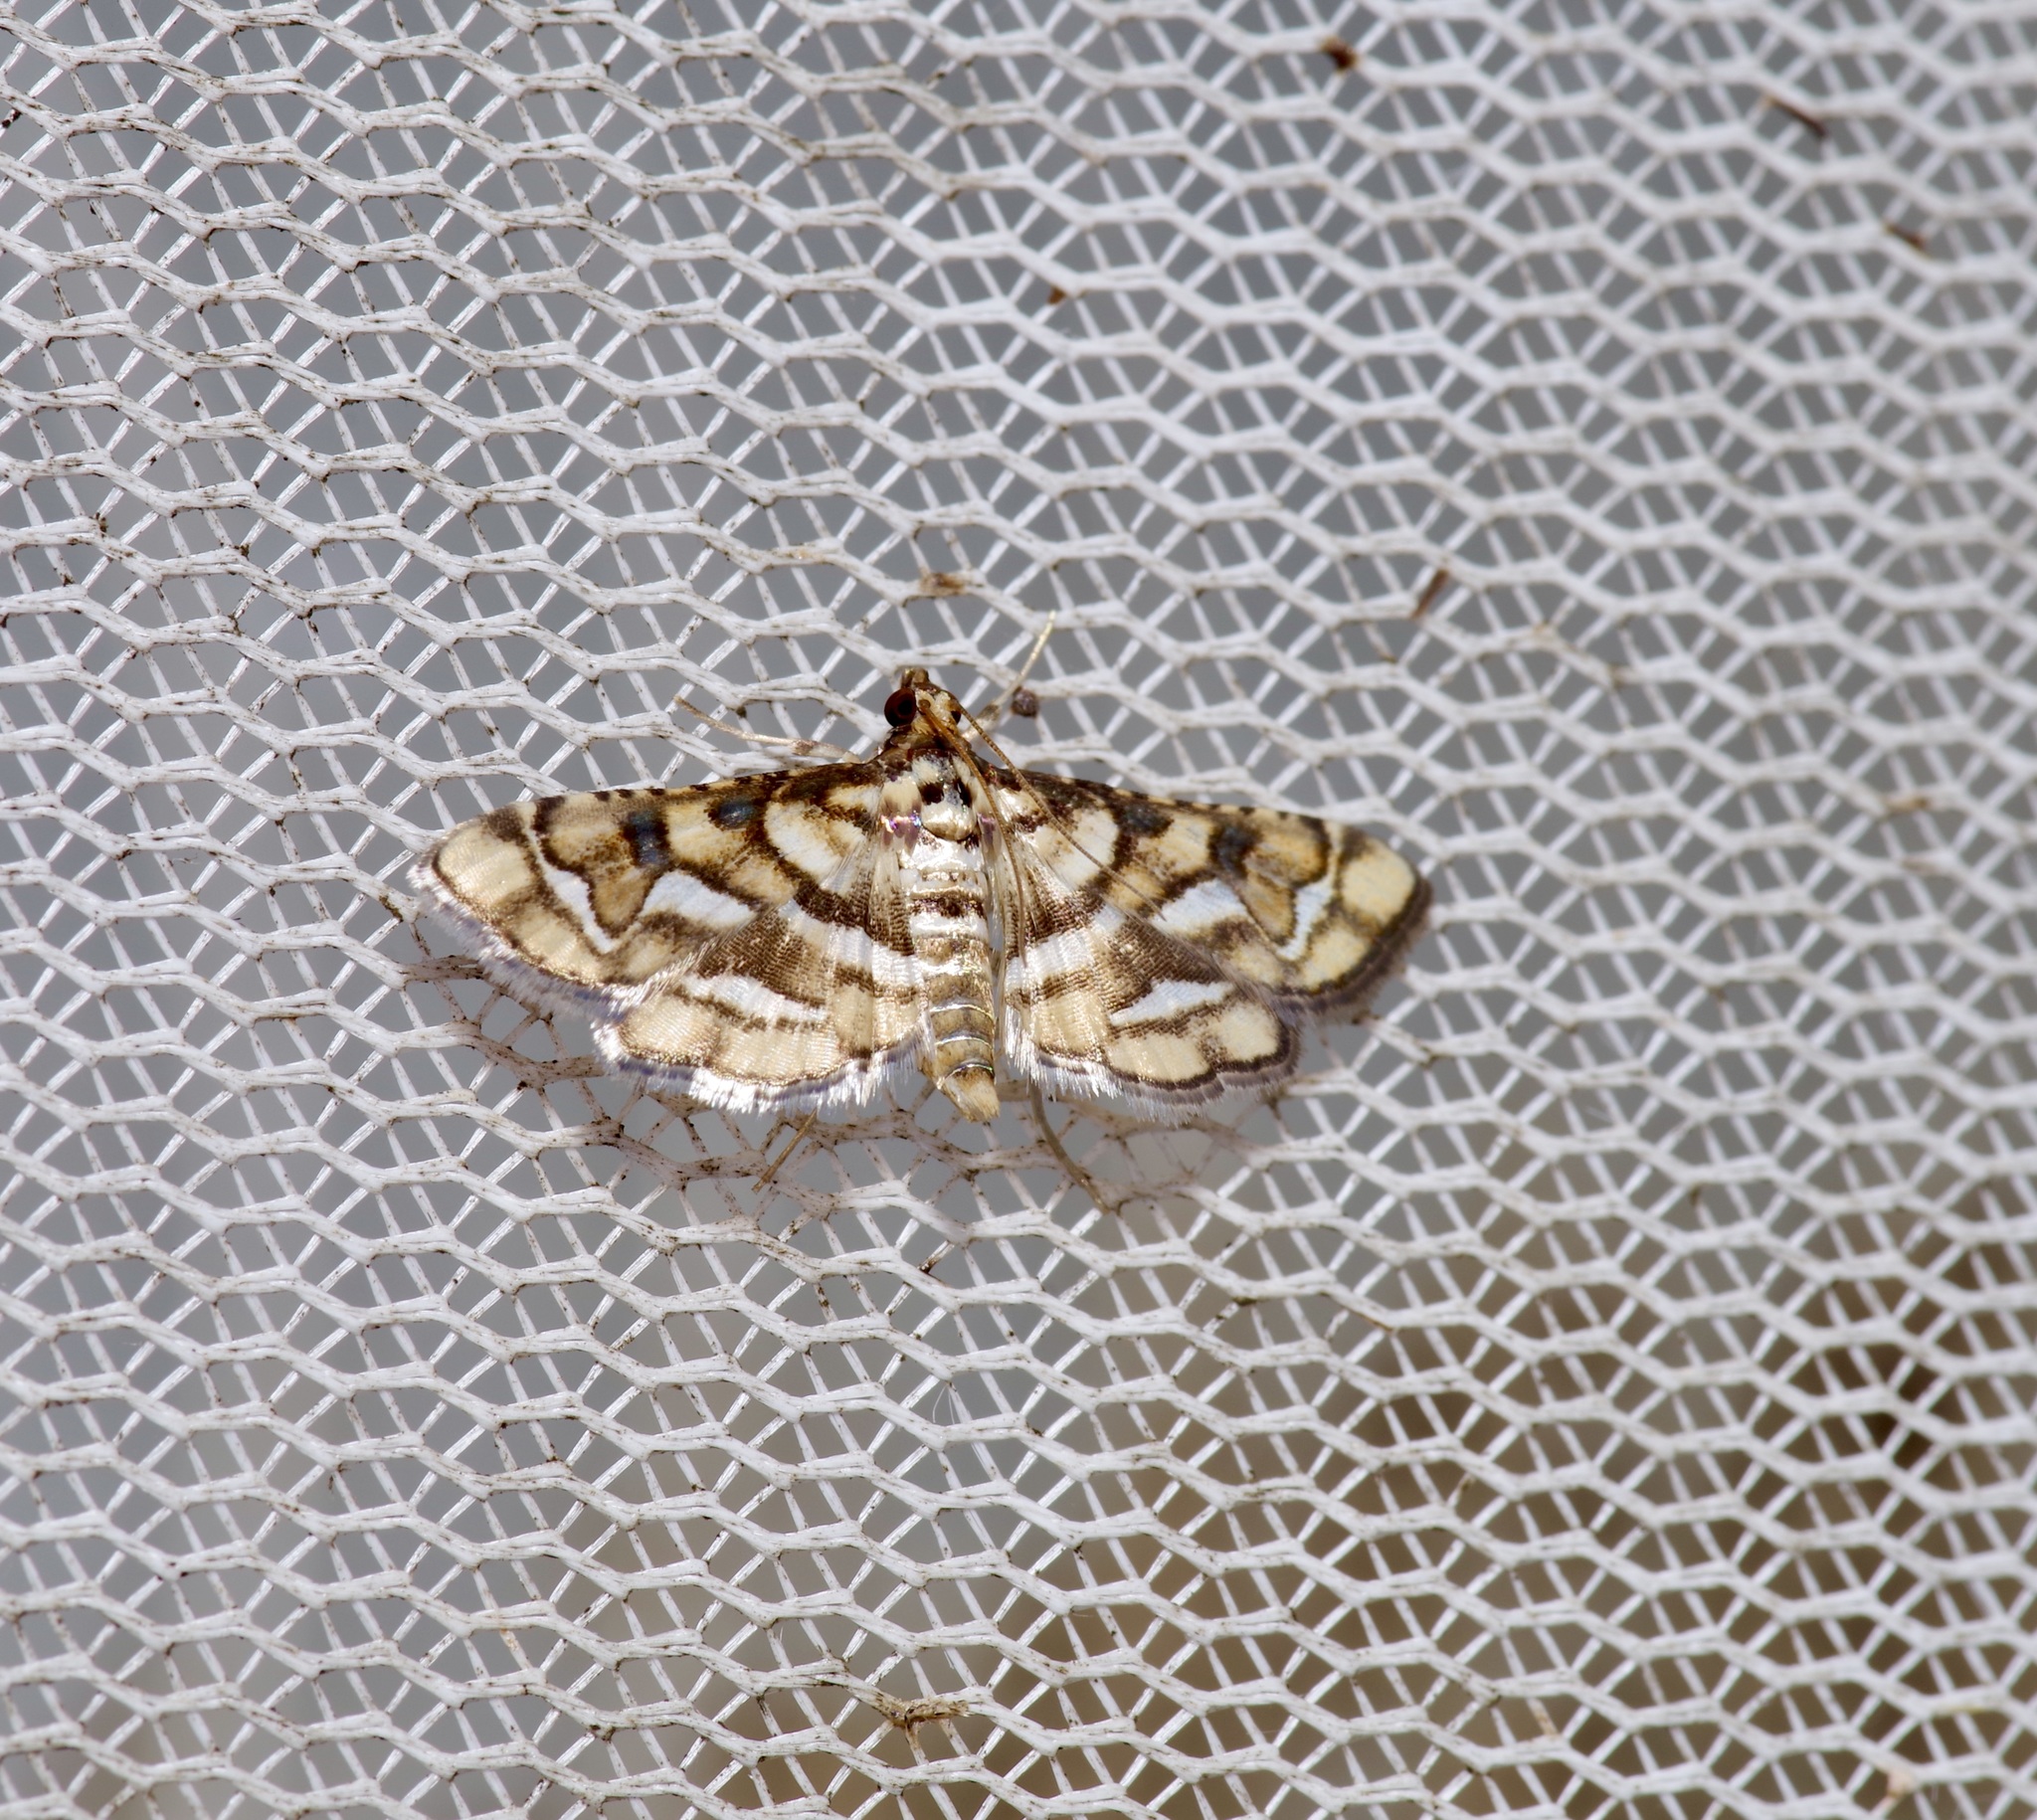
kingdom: Animalia
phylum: Arthropoda
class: Insecta
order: Lepidoptera
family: Crambidae
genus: Hileithia
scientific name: Hileithia magualis
